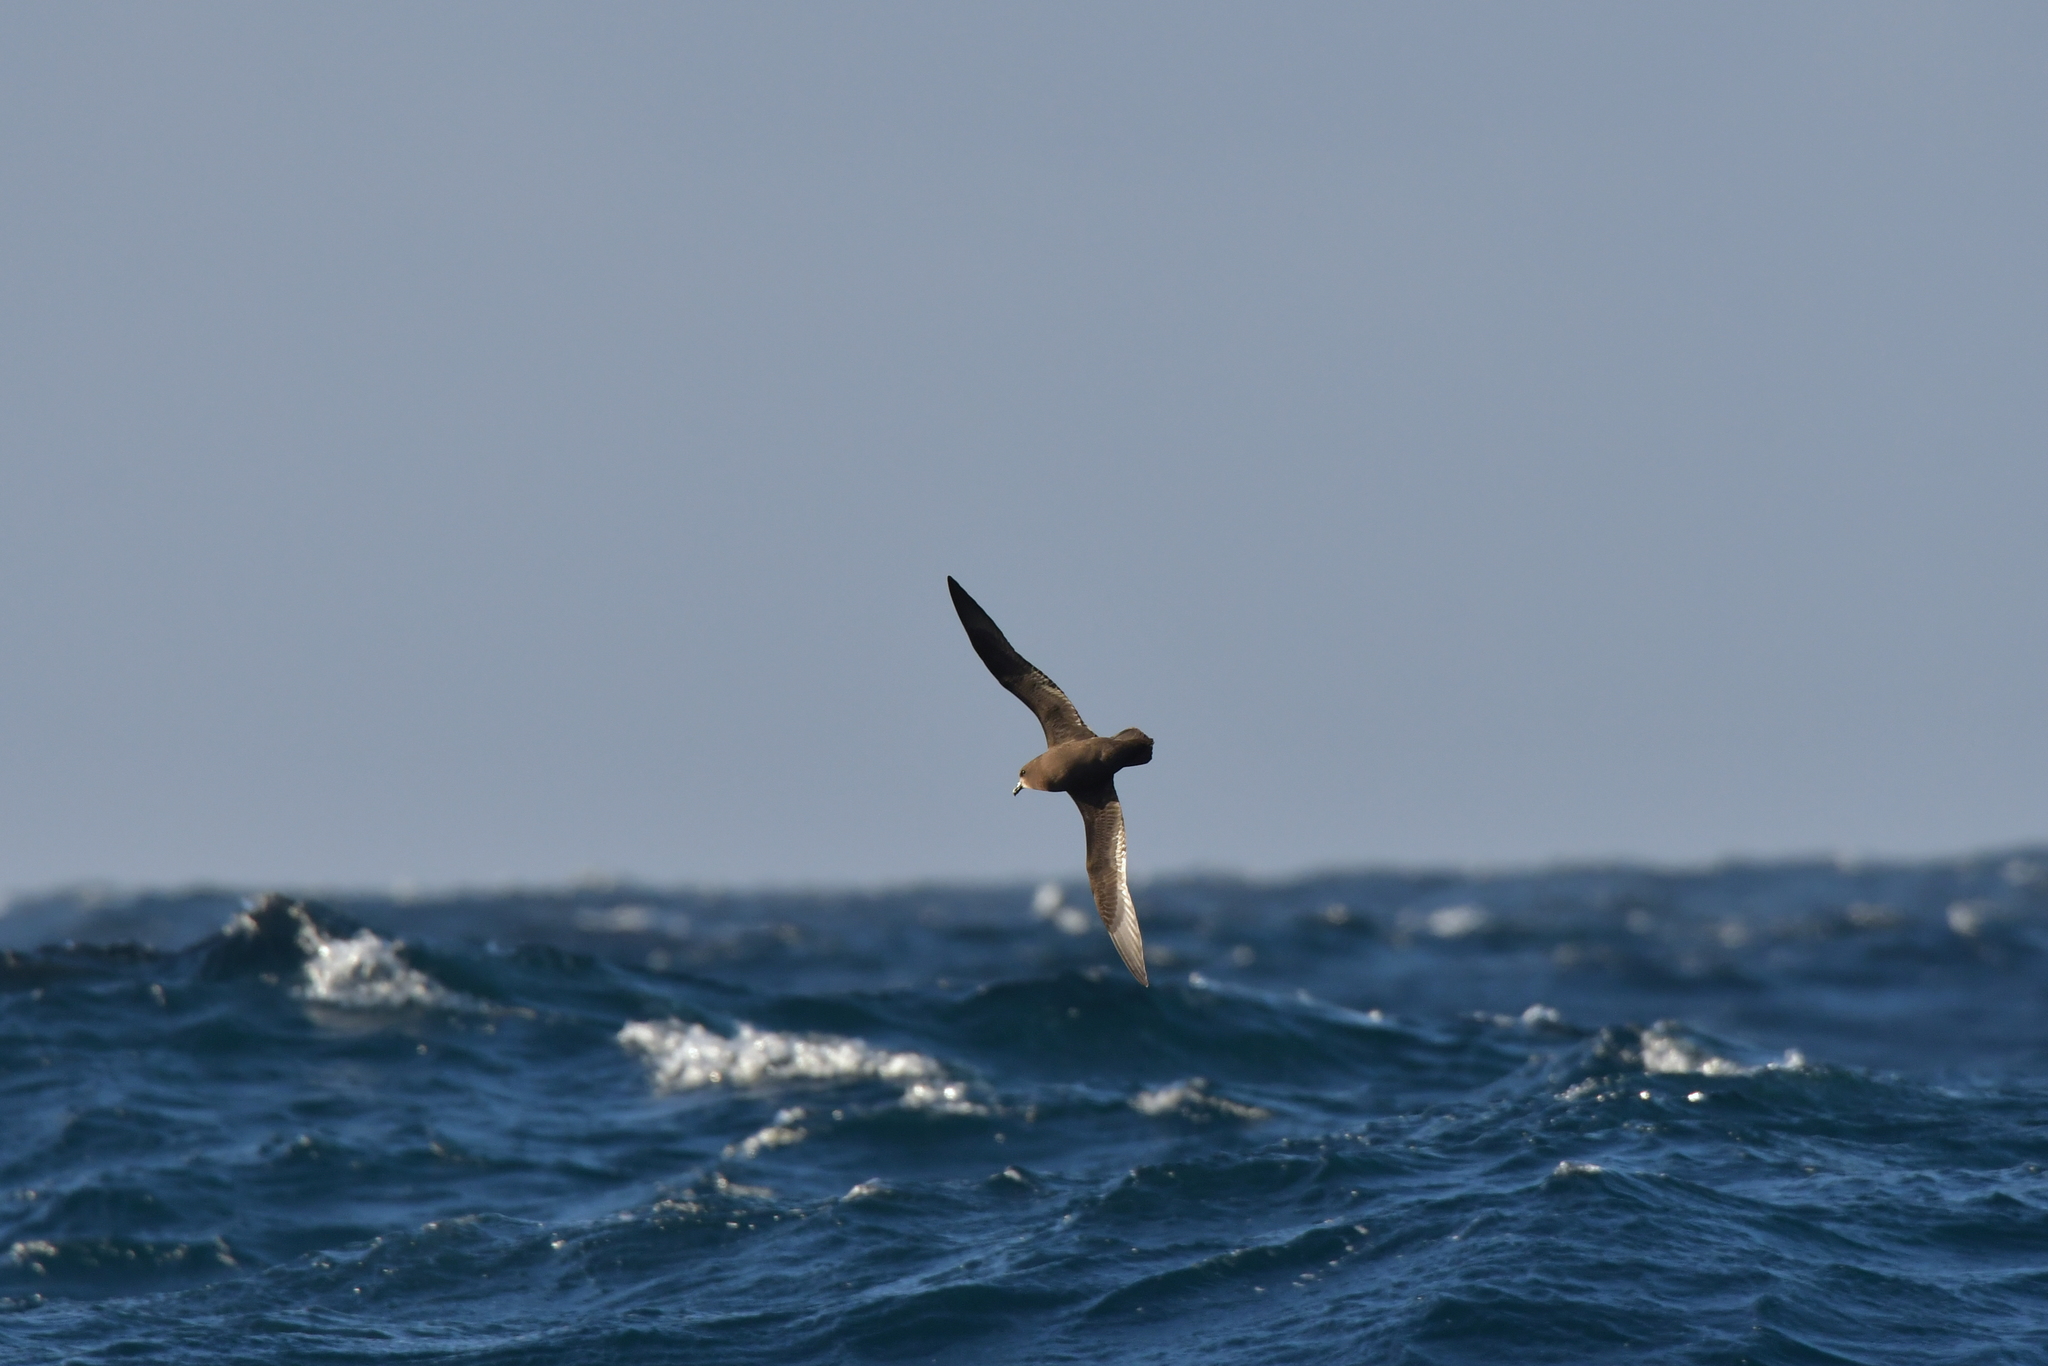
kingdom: Animalia
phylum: Chordata
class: Aves
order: Procellariiformes
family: Procellariidae
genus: Pterodroma
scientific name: Pterodroma macroptera
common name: Great-winged petrel
